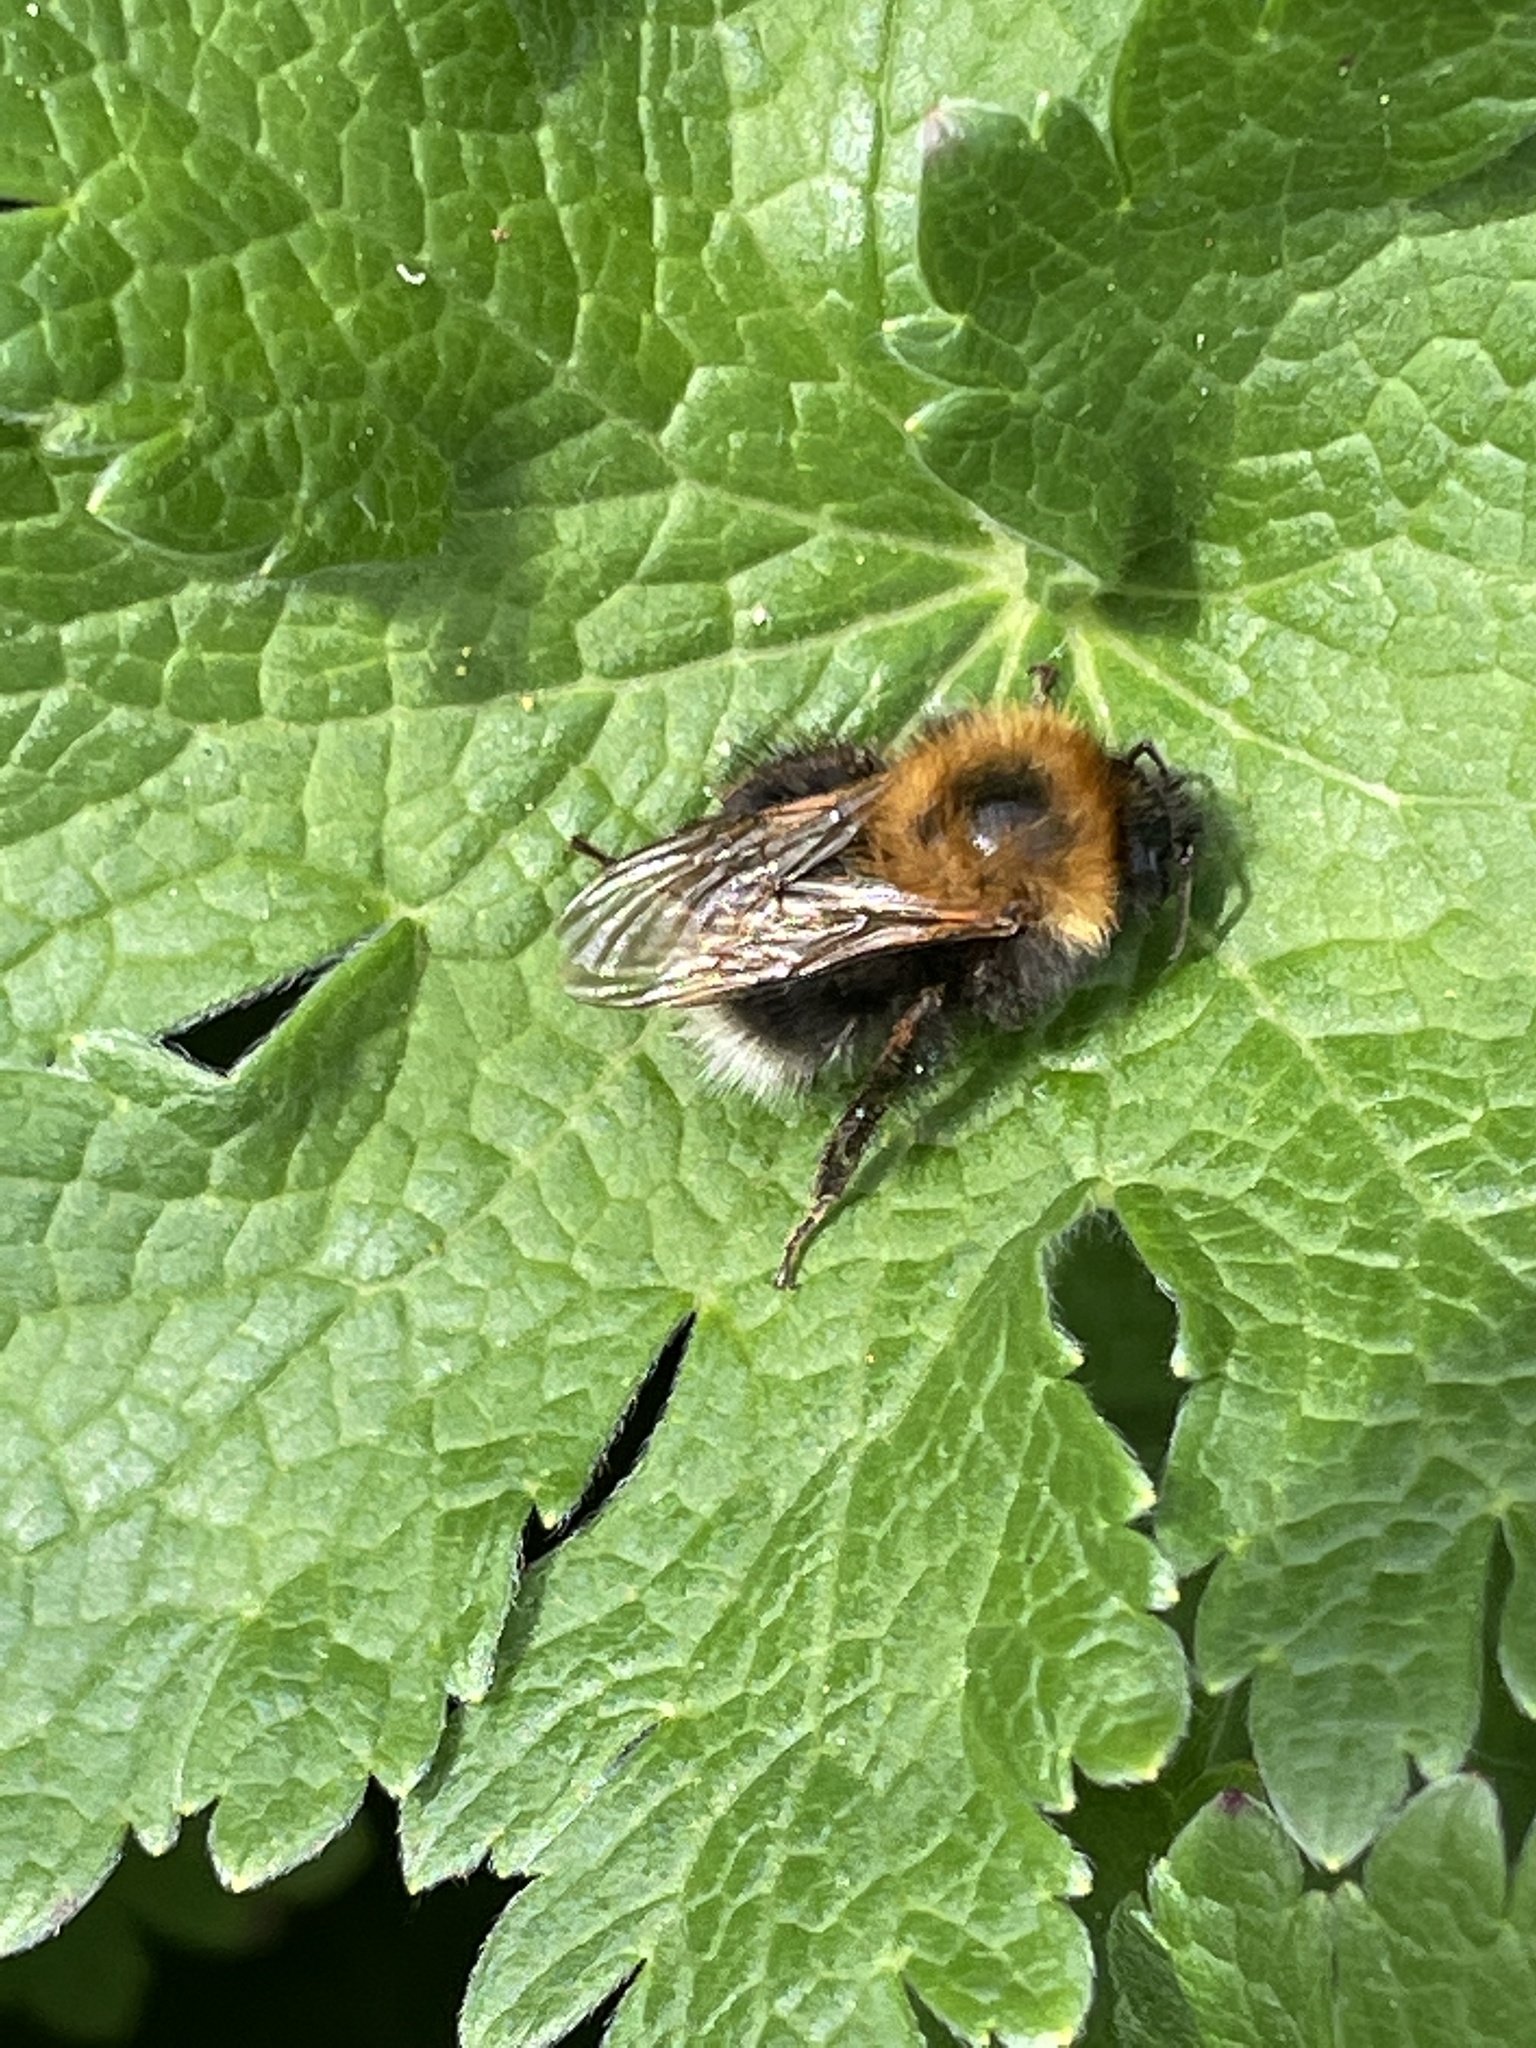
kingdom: Animalia
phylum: Arthropoda
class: Insecta
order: Hymenoptera
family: Apidae
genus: Bombus
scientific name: Bombus hypnorum
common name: New garden bumblebee
